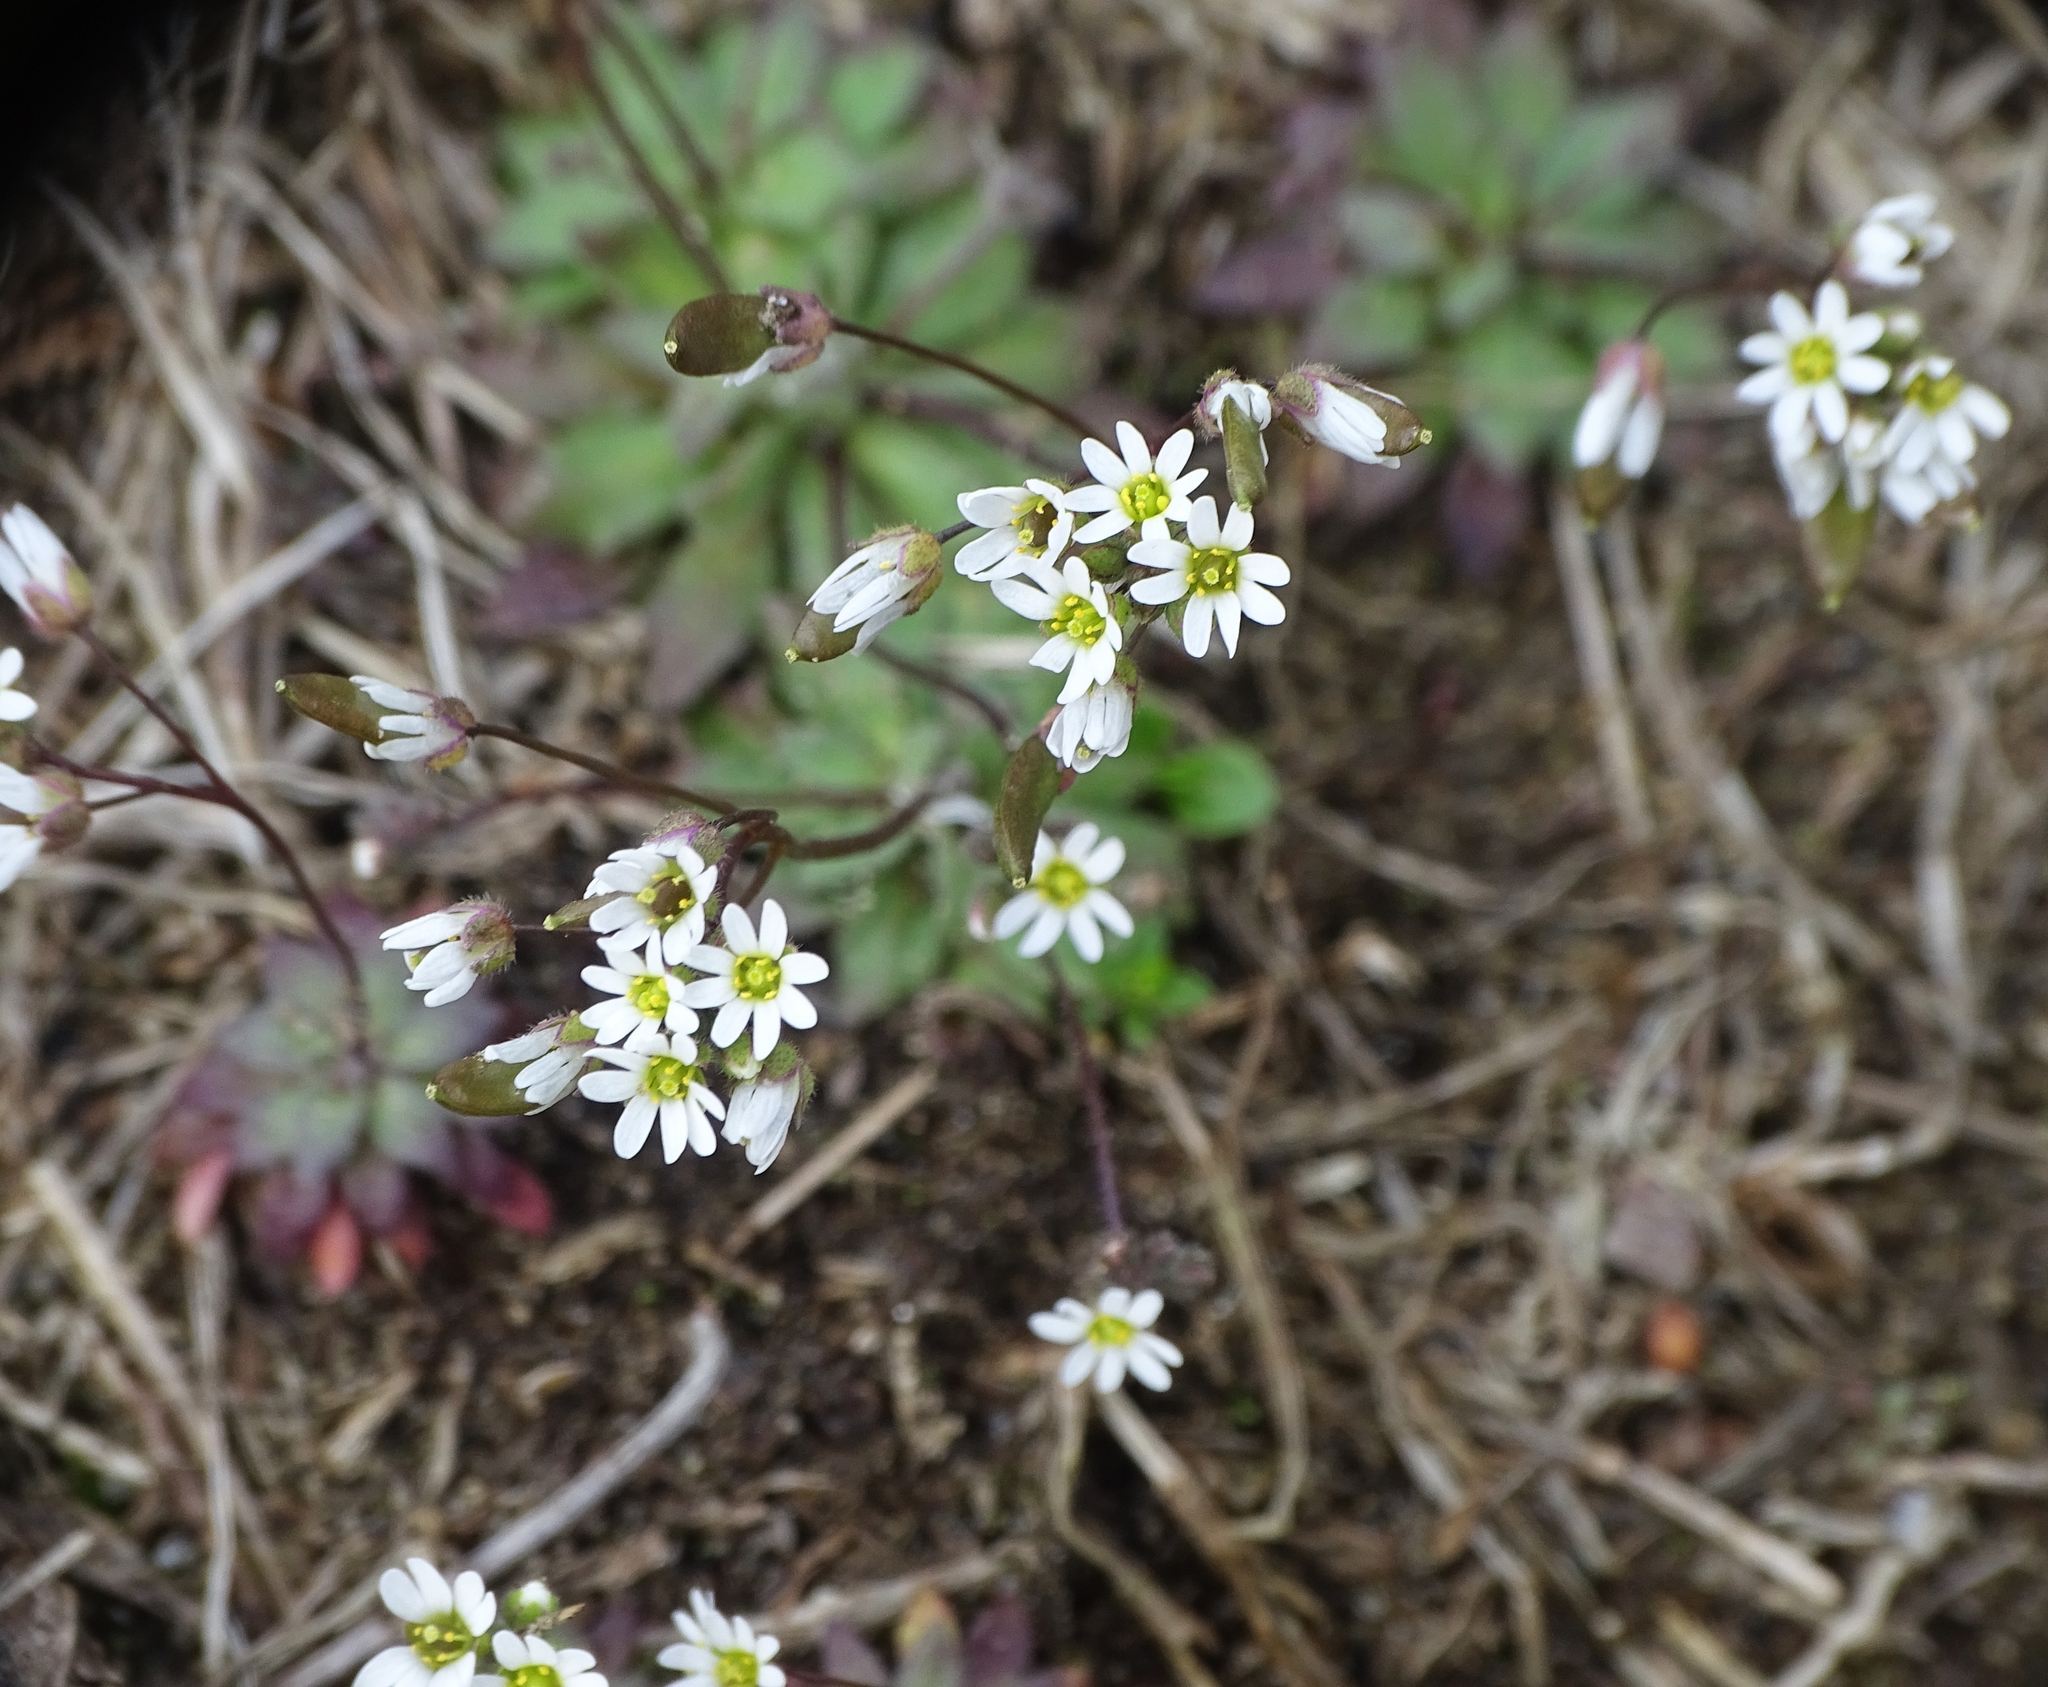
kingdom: Plantae
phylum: Tracheophyta
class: Magnoliopsida
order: Brassicales
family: Brassicaceae
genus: Draba
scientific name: Draba verna
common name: Spring draba
